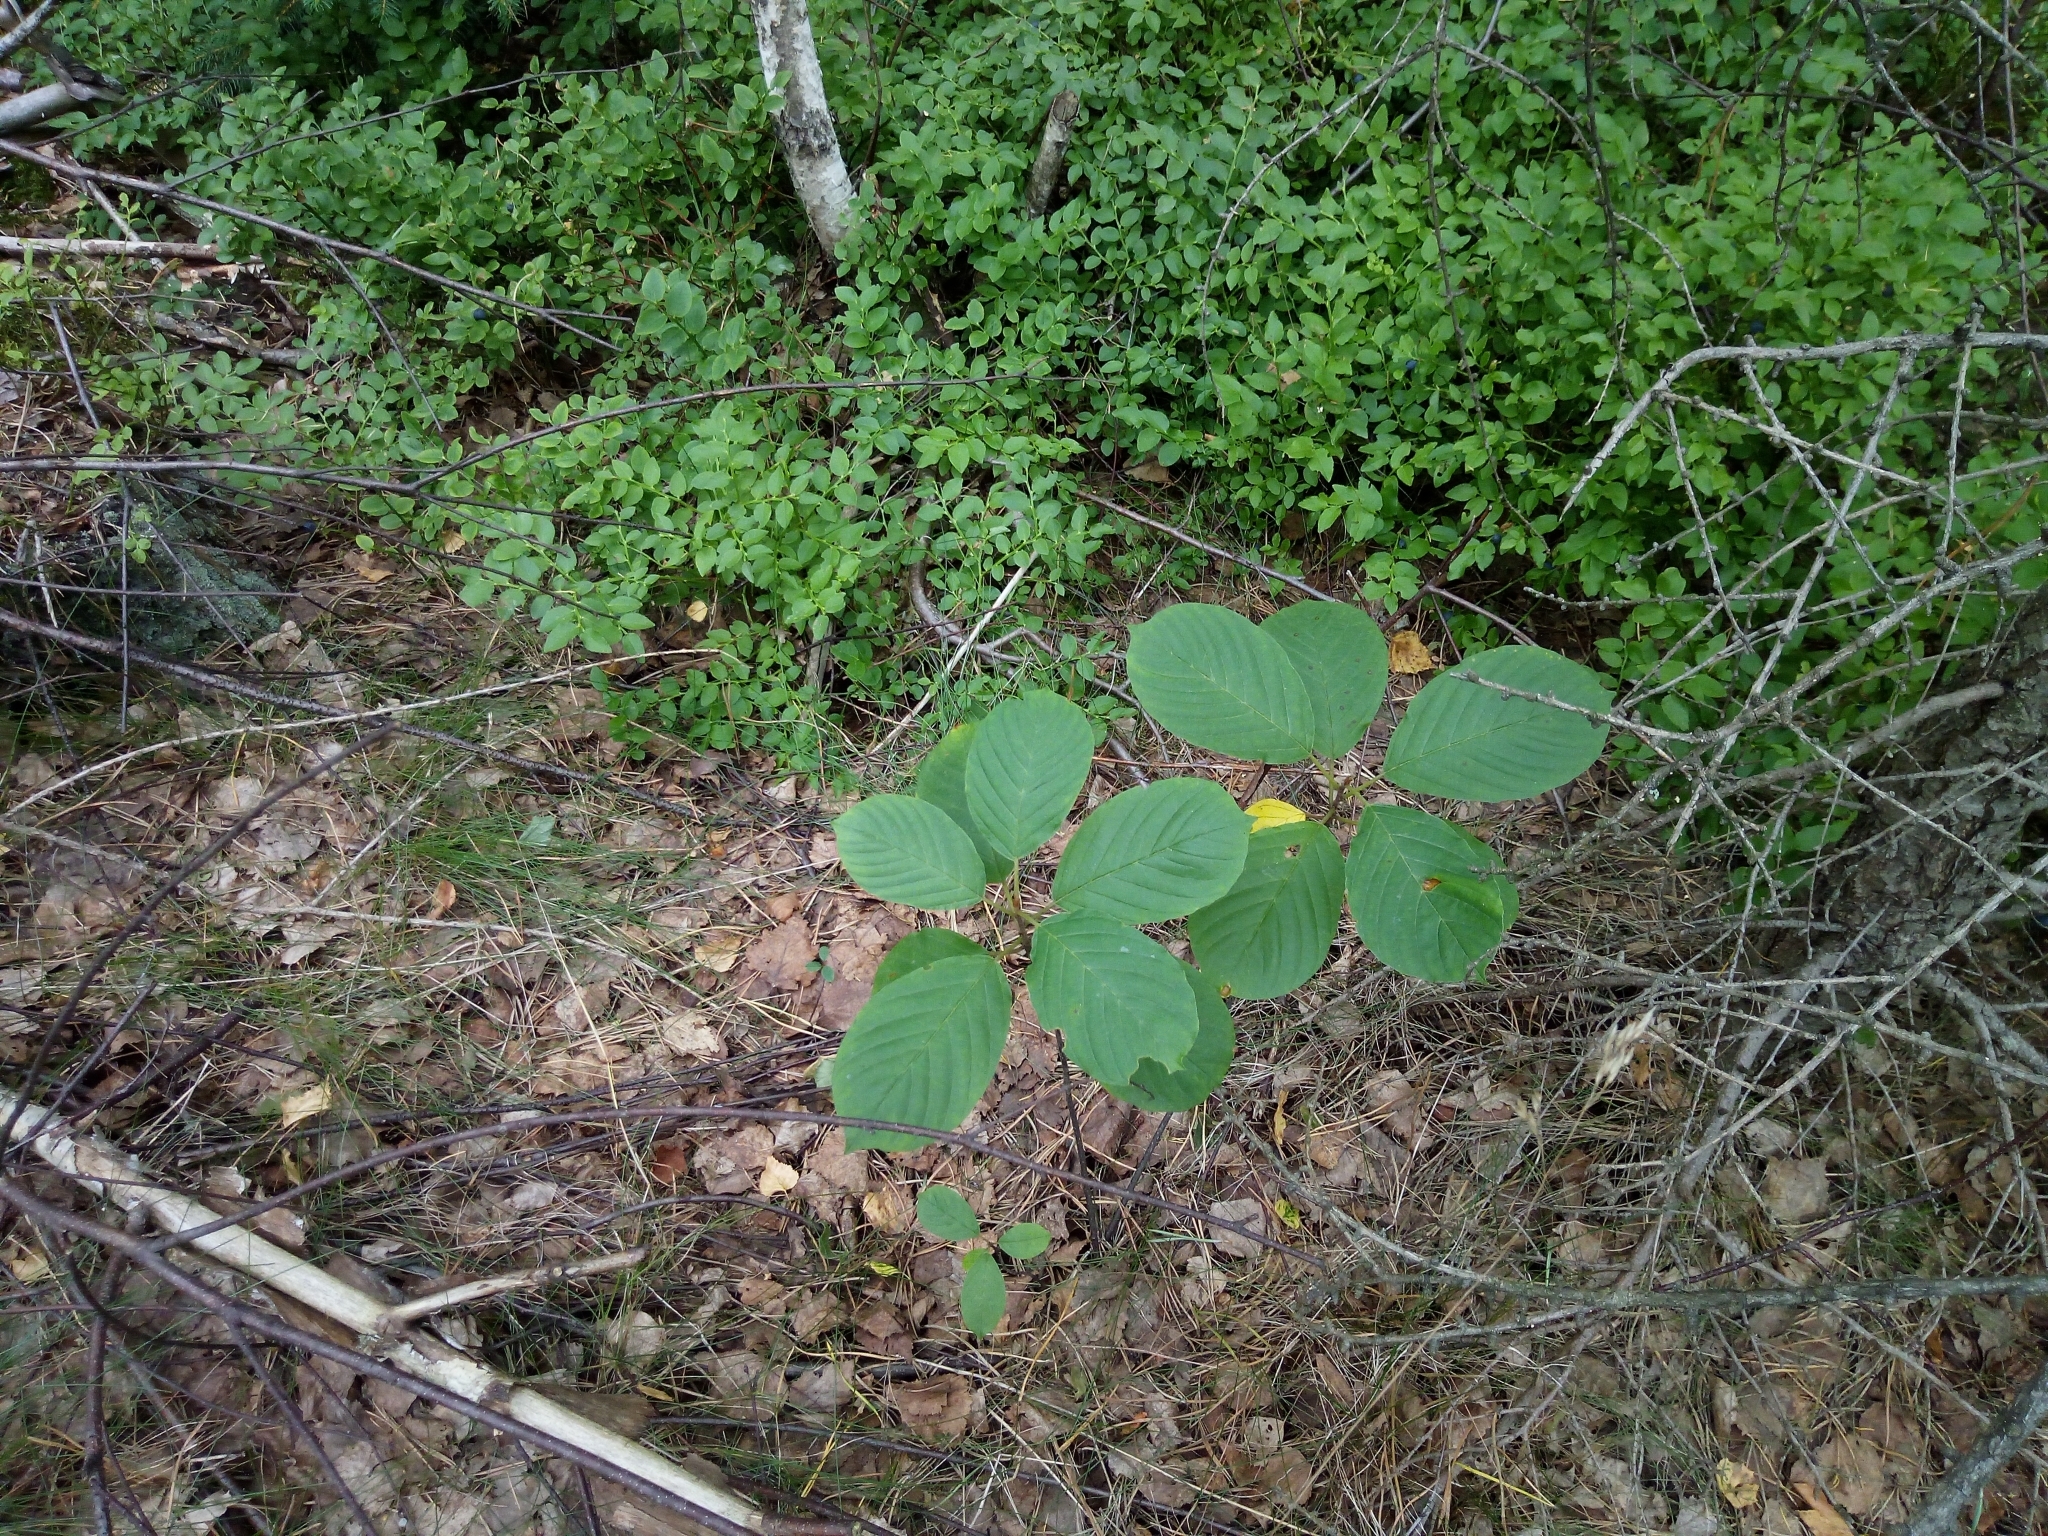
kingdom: Plantae
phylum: Tracheophyta
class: Magnoliopsida
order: Rosales
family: Rhamnaceae
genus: Frangula
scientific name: Frangula alnus
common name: Alder buckthorn
